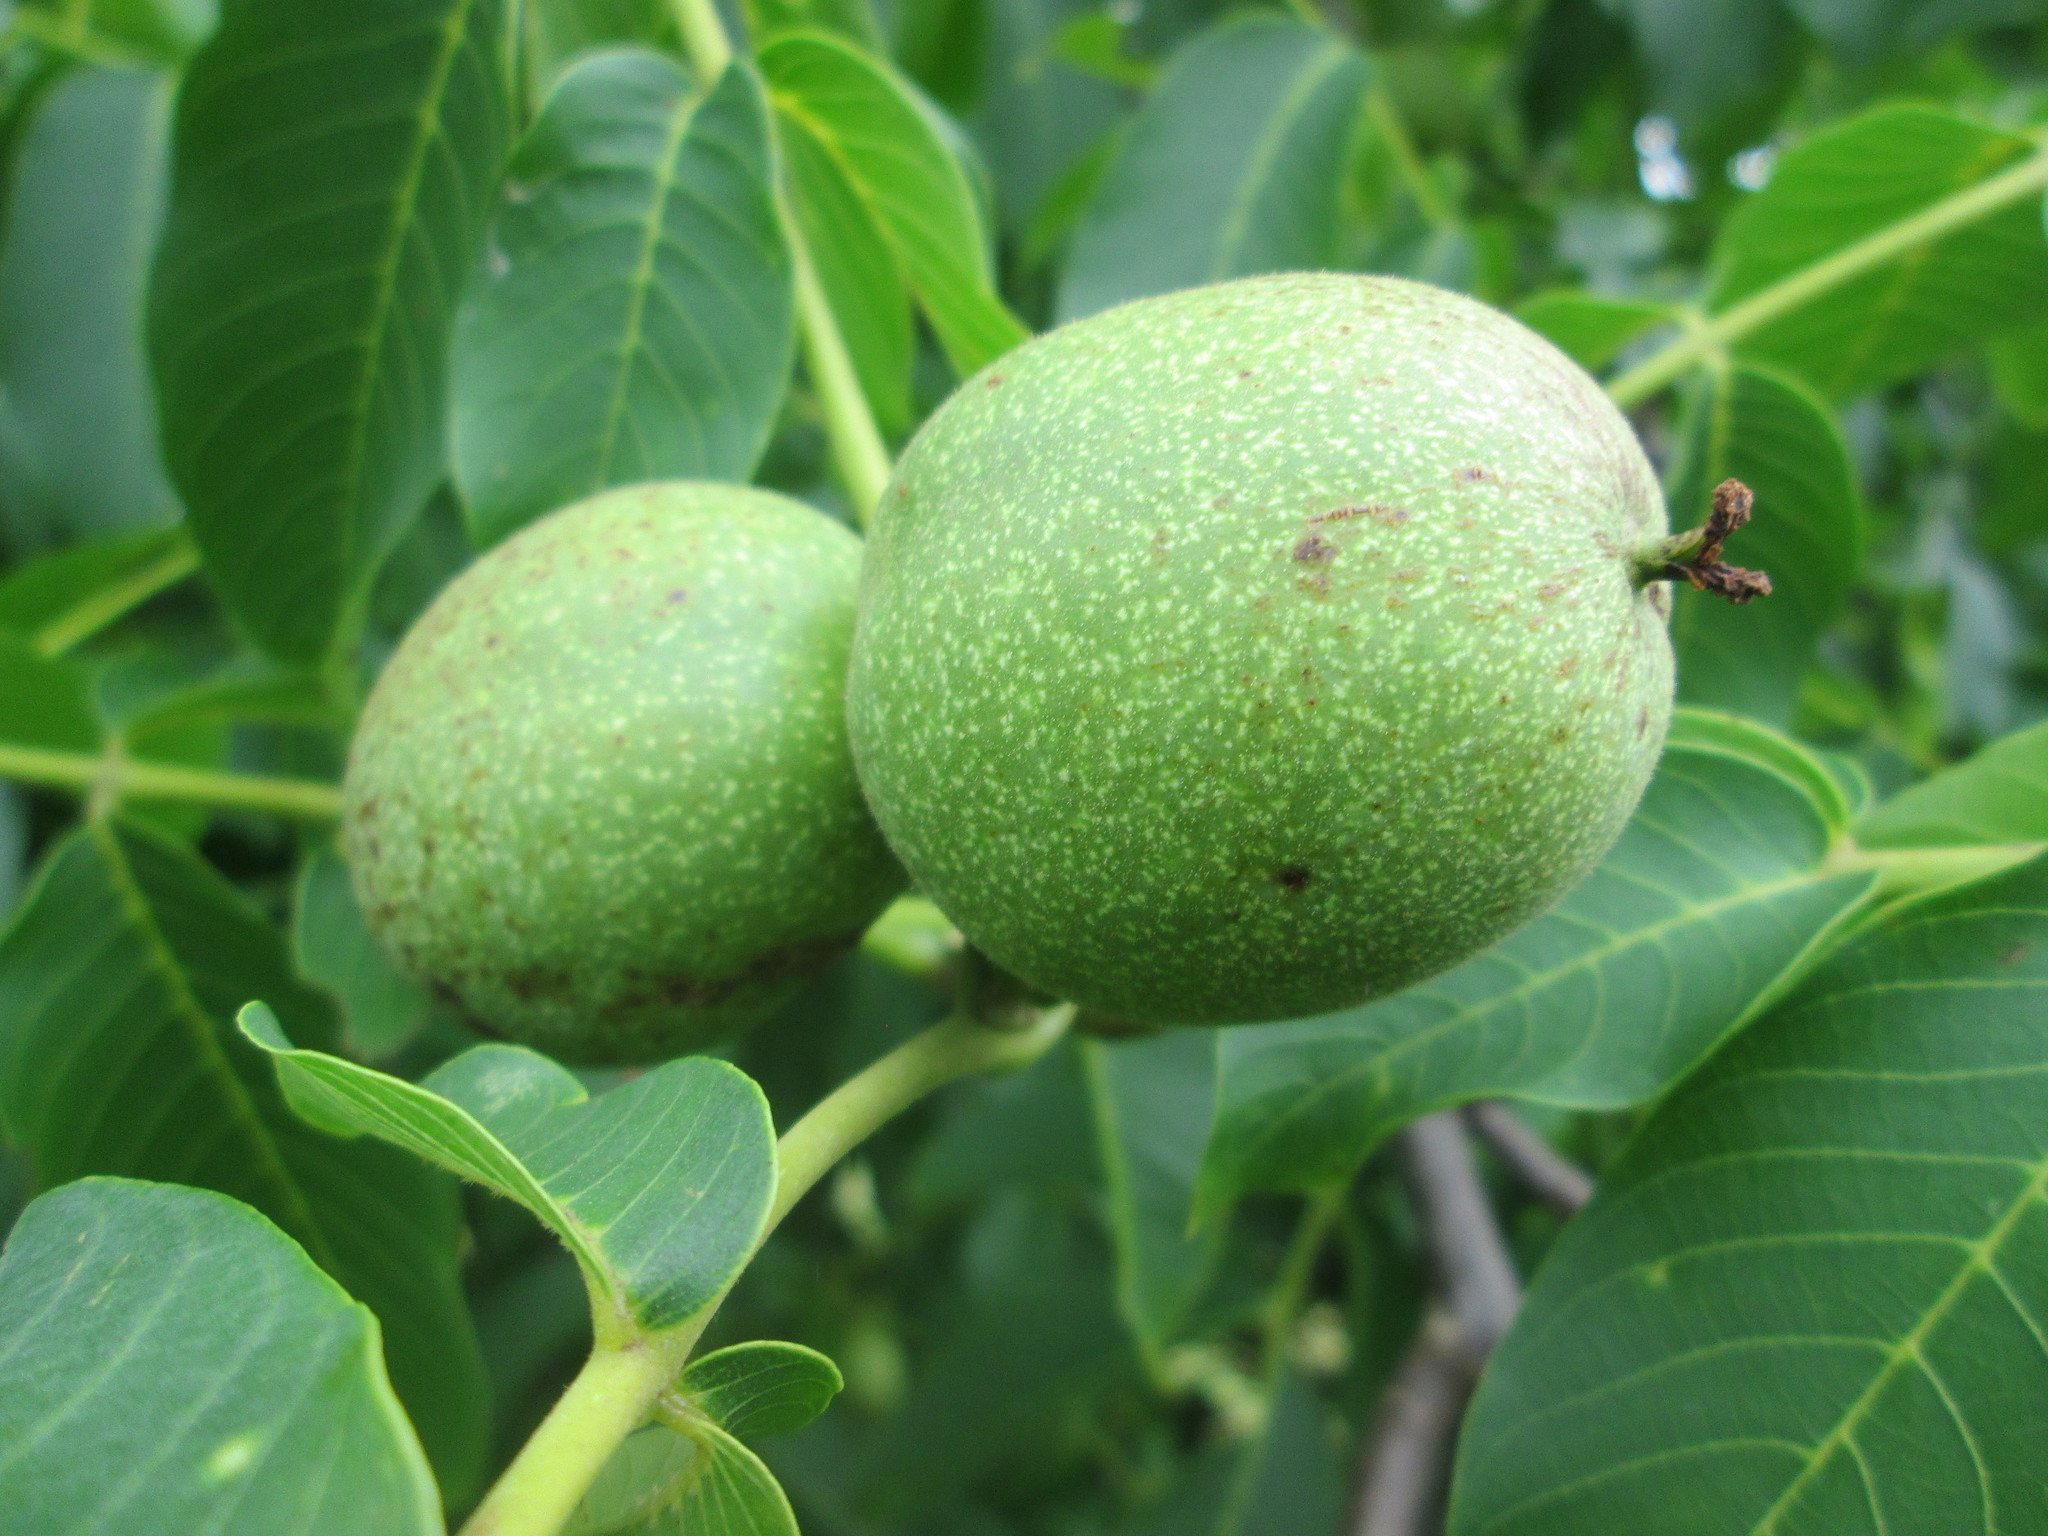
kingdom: Plantae
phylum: Tracheophyta
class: Magnoliopsida
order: Fagales
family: Juglandaceae
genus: Juglans
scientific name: Juglans regia
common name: Walnut
